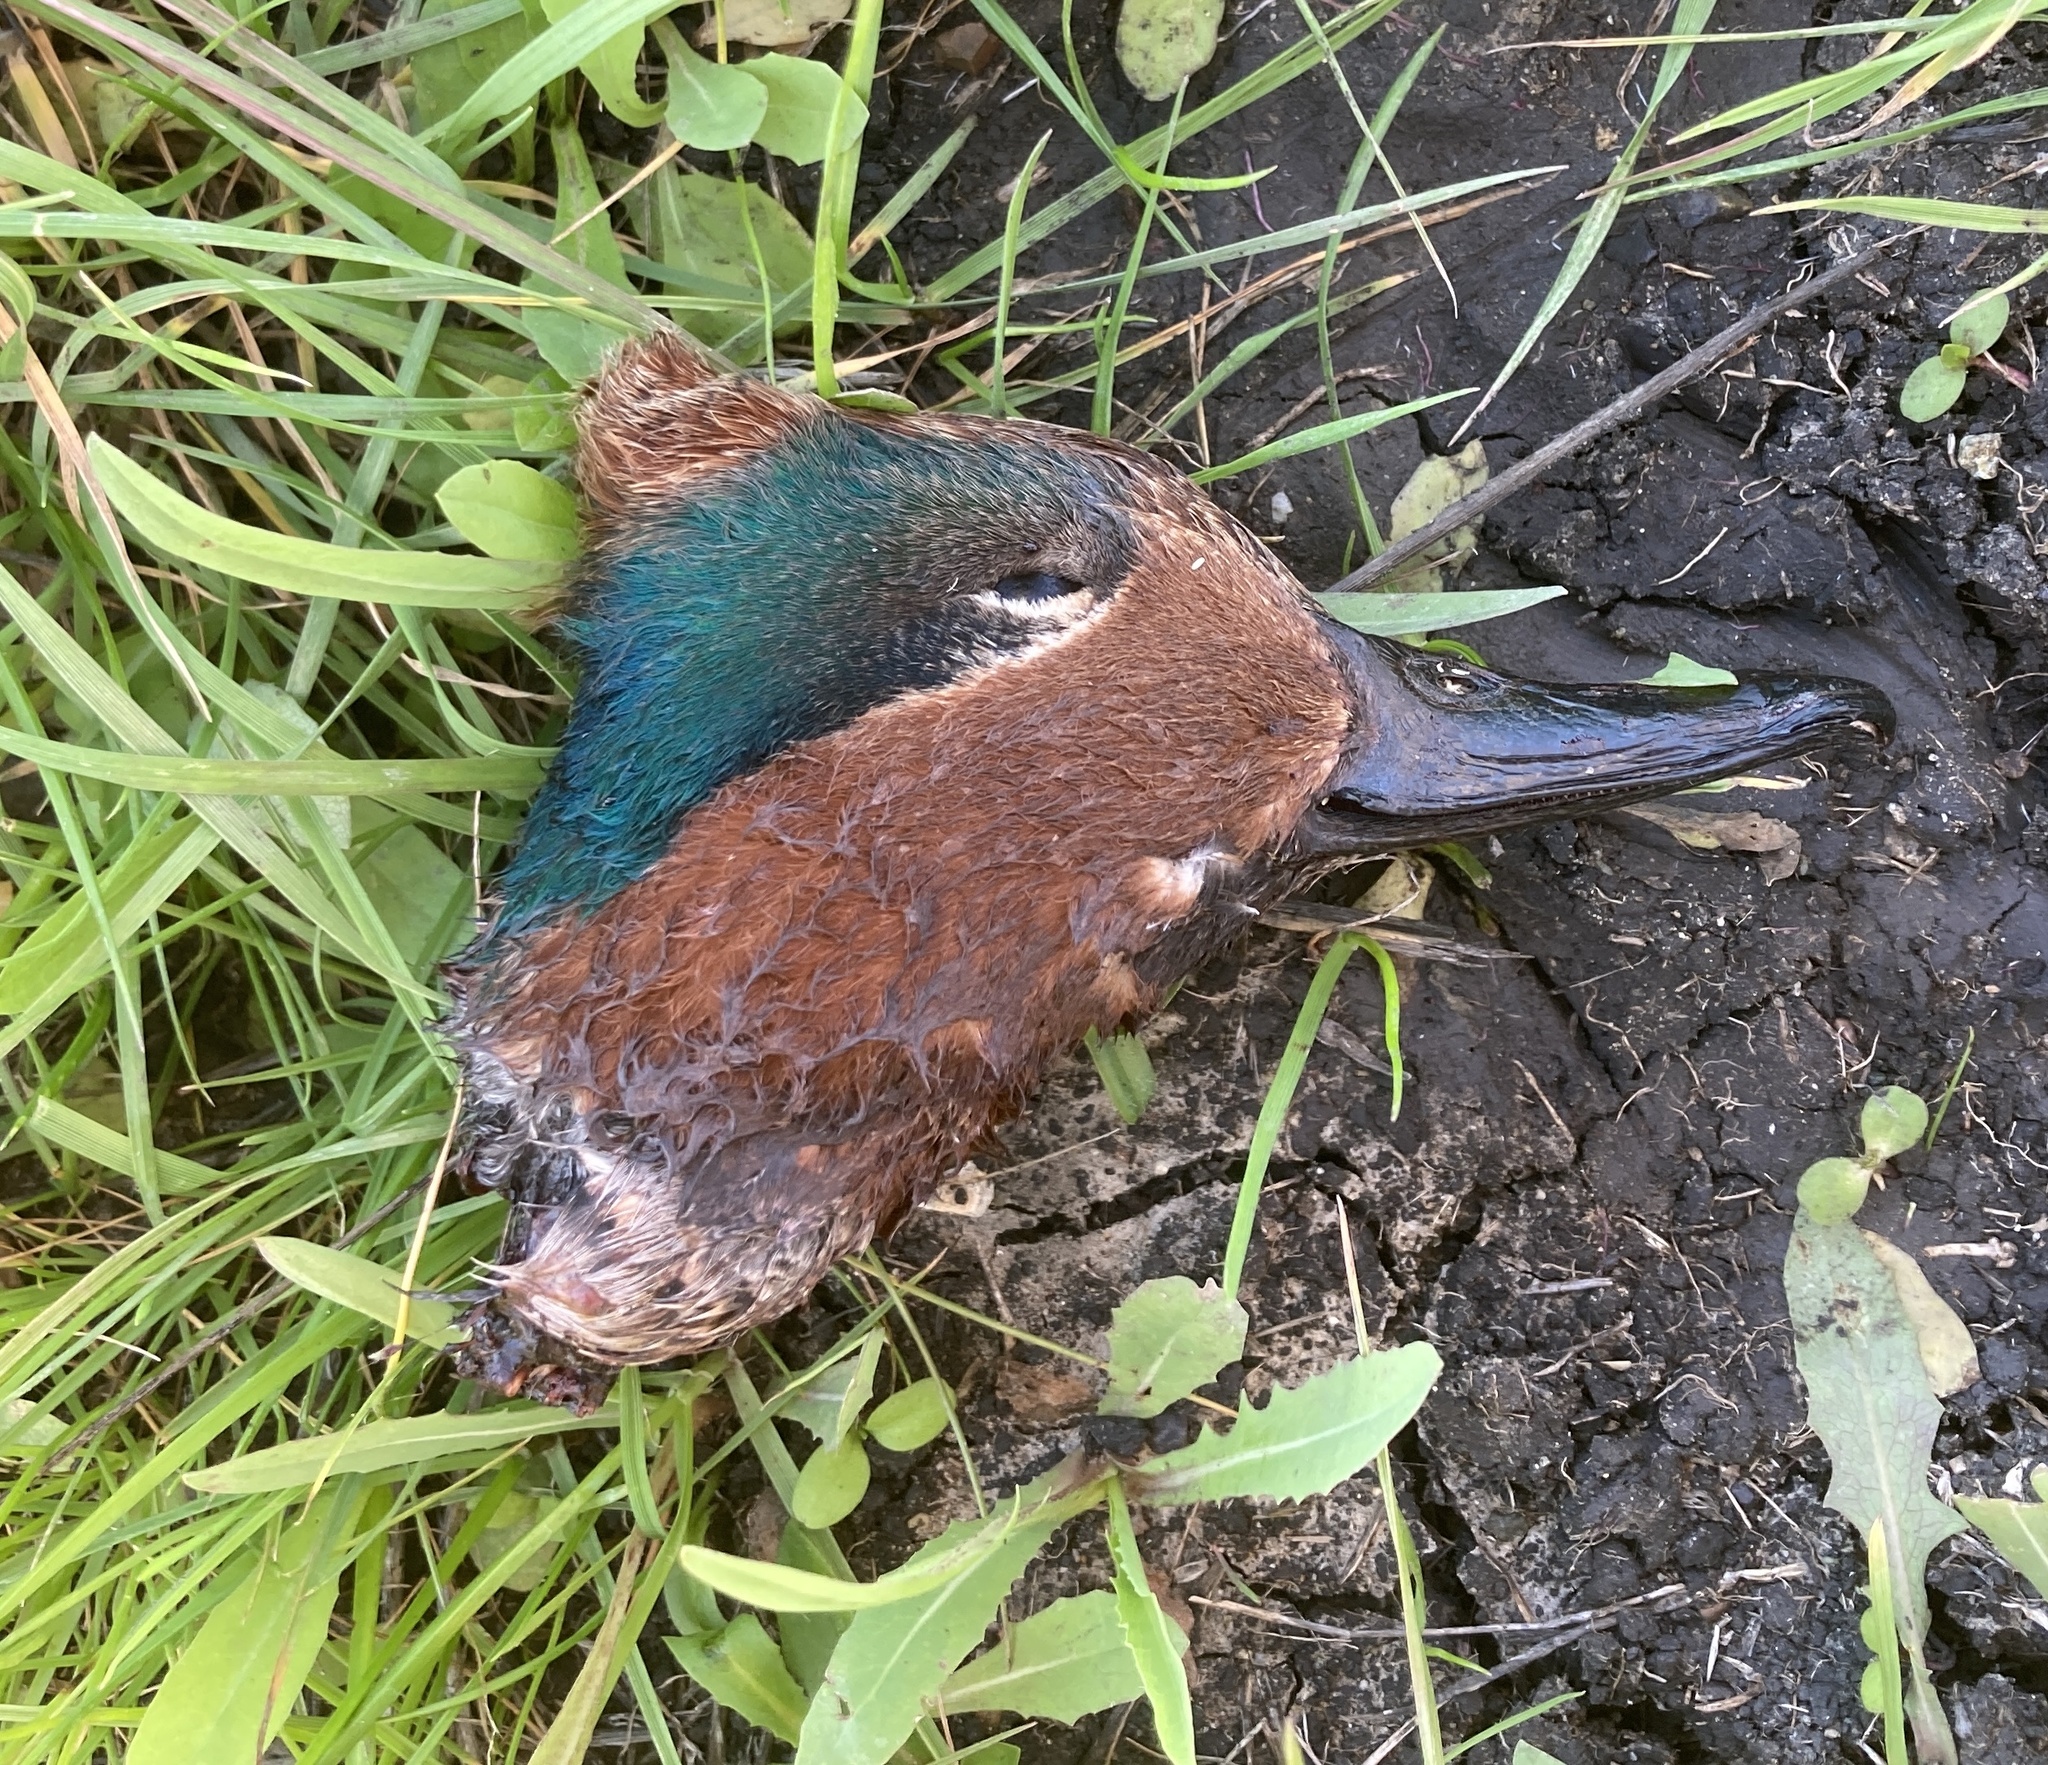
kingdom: Animalia
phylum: Chordata
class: Aves
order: Anseriformes
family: Anatidae
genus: Anas
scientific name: Anas crecca
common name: Eurasian teal
